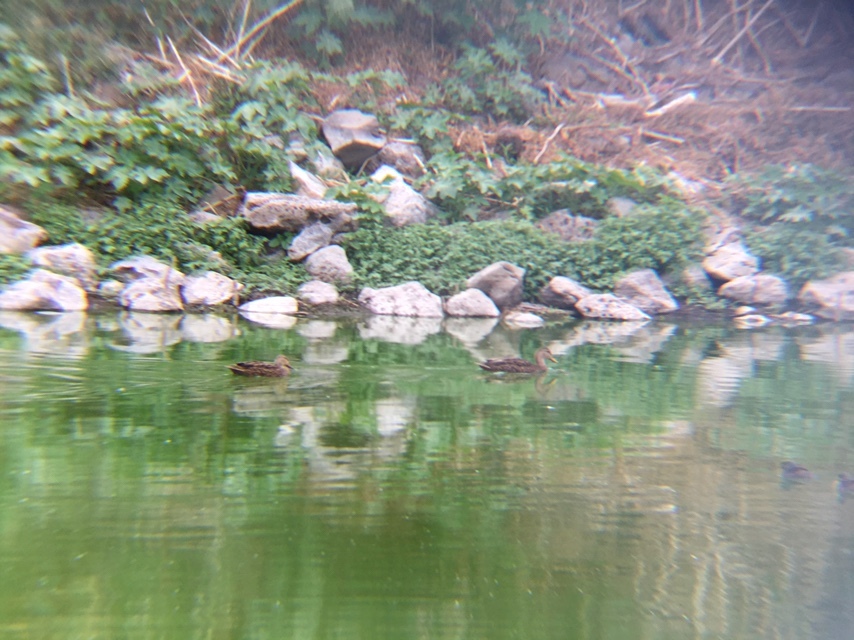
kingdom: Animalia
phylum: Chordata
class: Aves
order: Anseriformes
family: Anatidae
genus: Anas
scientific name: Anas diazi
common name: Mexican duck
